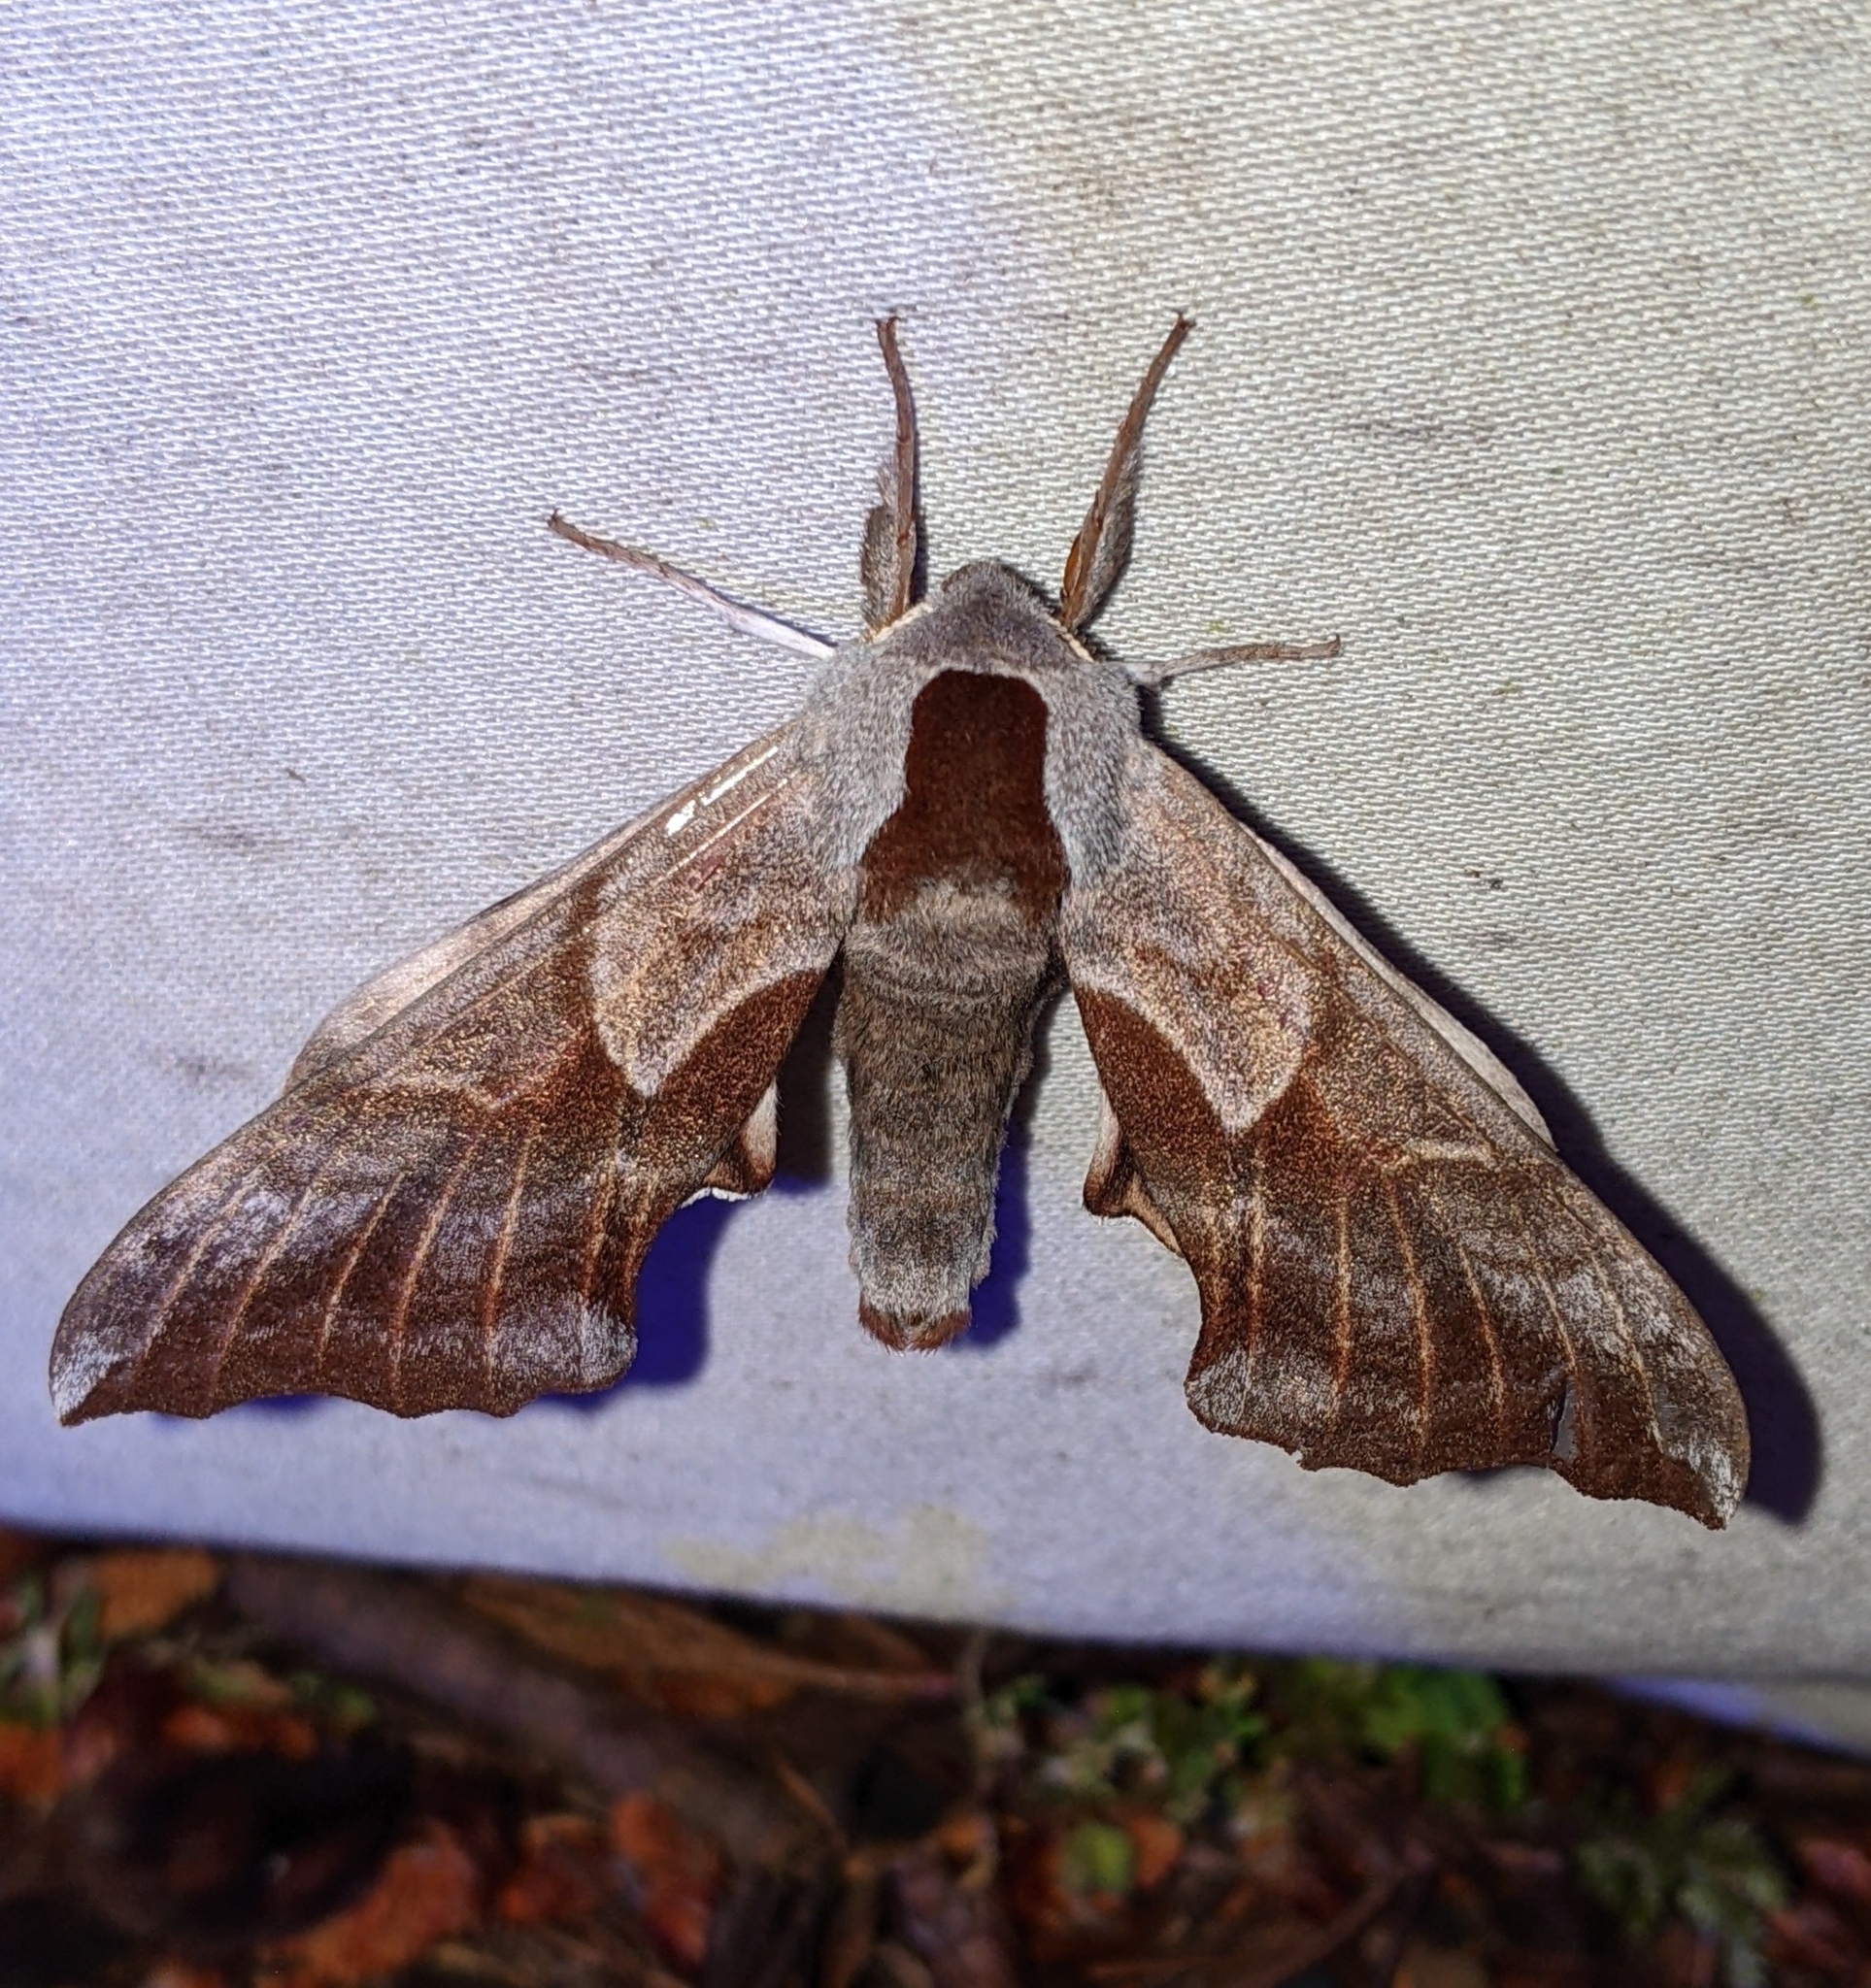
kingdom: Animalia
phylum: Arthropoda
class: Insecta
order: Lepidoptera
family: Sphingidae
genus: Smerinthus
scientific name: Smerinthus cerisyi
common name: Cerisy's sphinx moth
